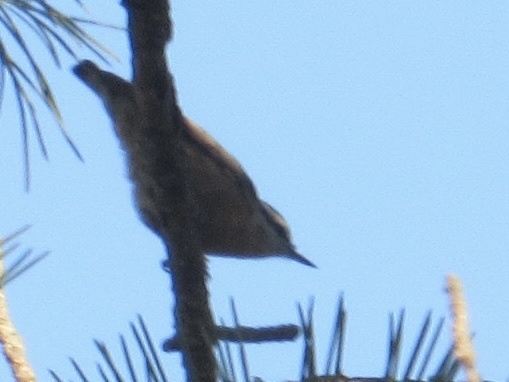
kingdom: Animalia
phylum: Chordata
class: Aves
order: Passeriformes
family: Sittidae
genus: Sitta
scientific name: Sitta canadensis
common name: Red-breasted nuthatch
